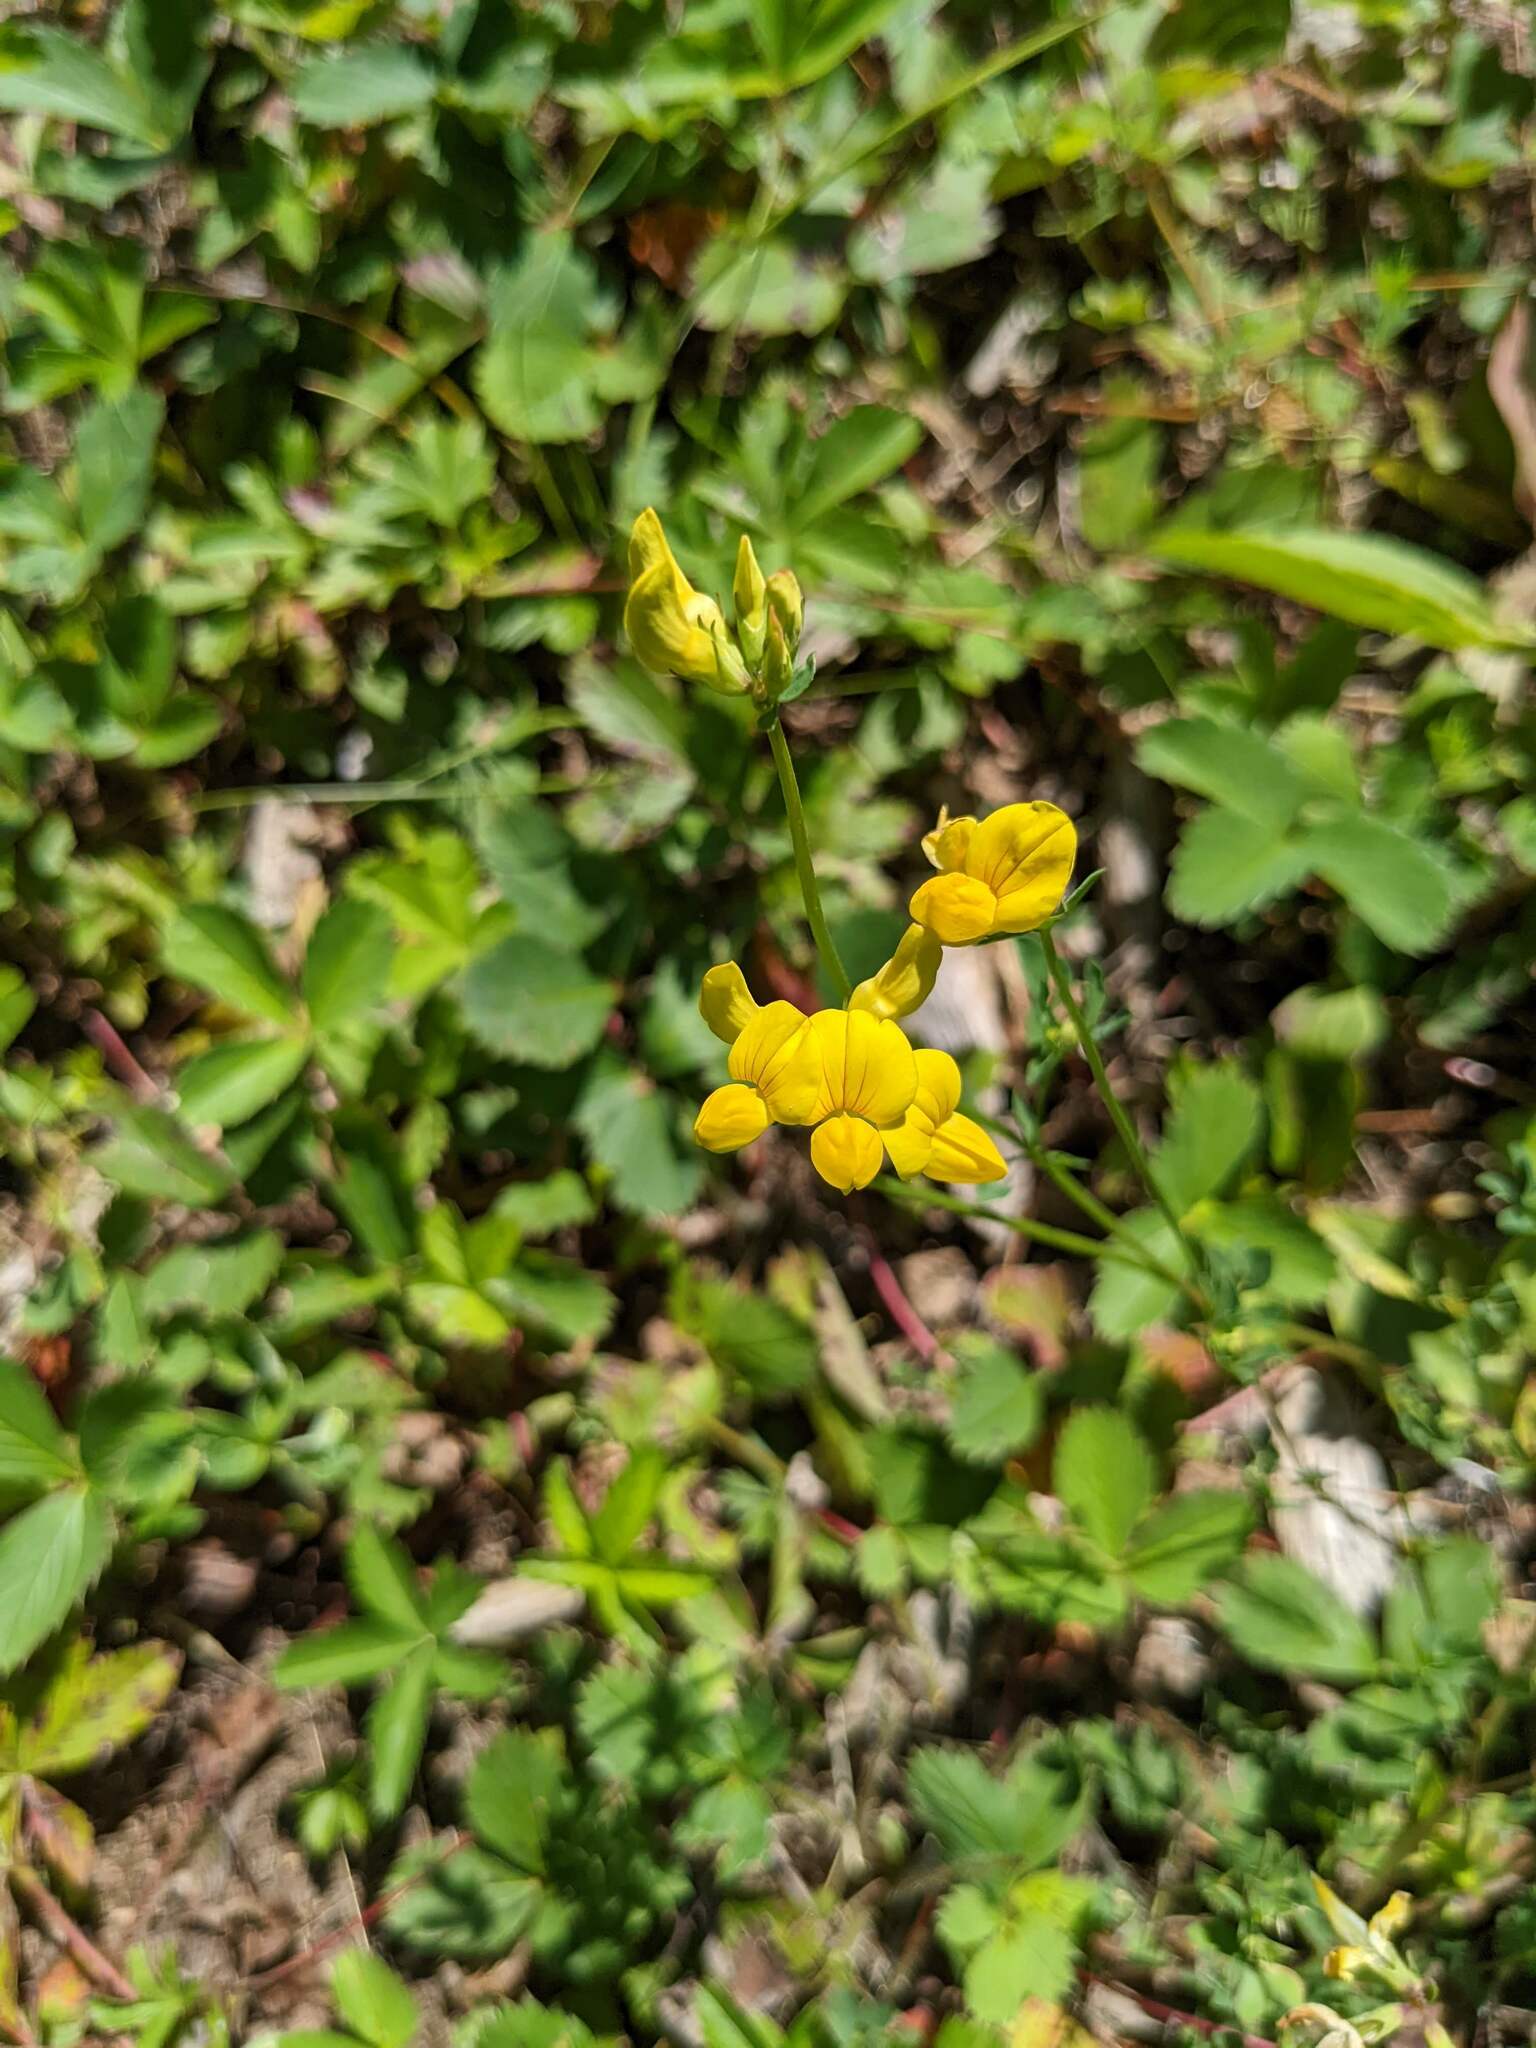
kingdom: Plantae
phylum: Tracheophyta
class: Magnoliopsida
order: Fabales
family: Fabaceae
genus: Lotus
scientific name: Lotus corniculatus
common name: Common bird's-foot-trefoil
